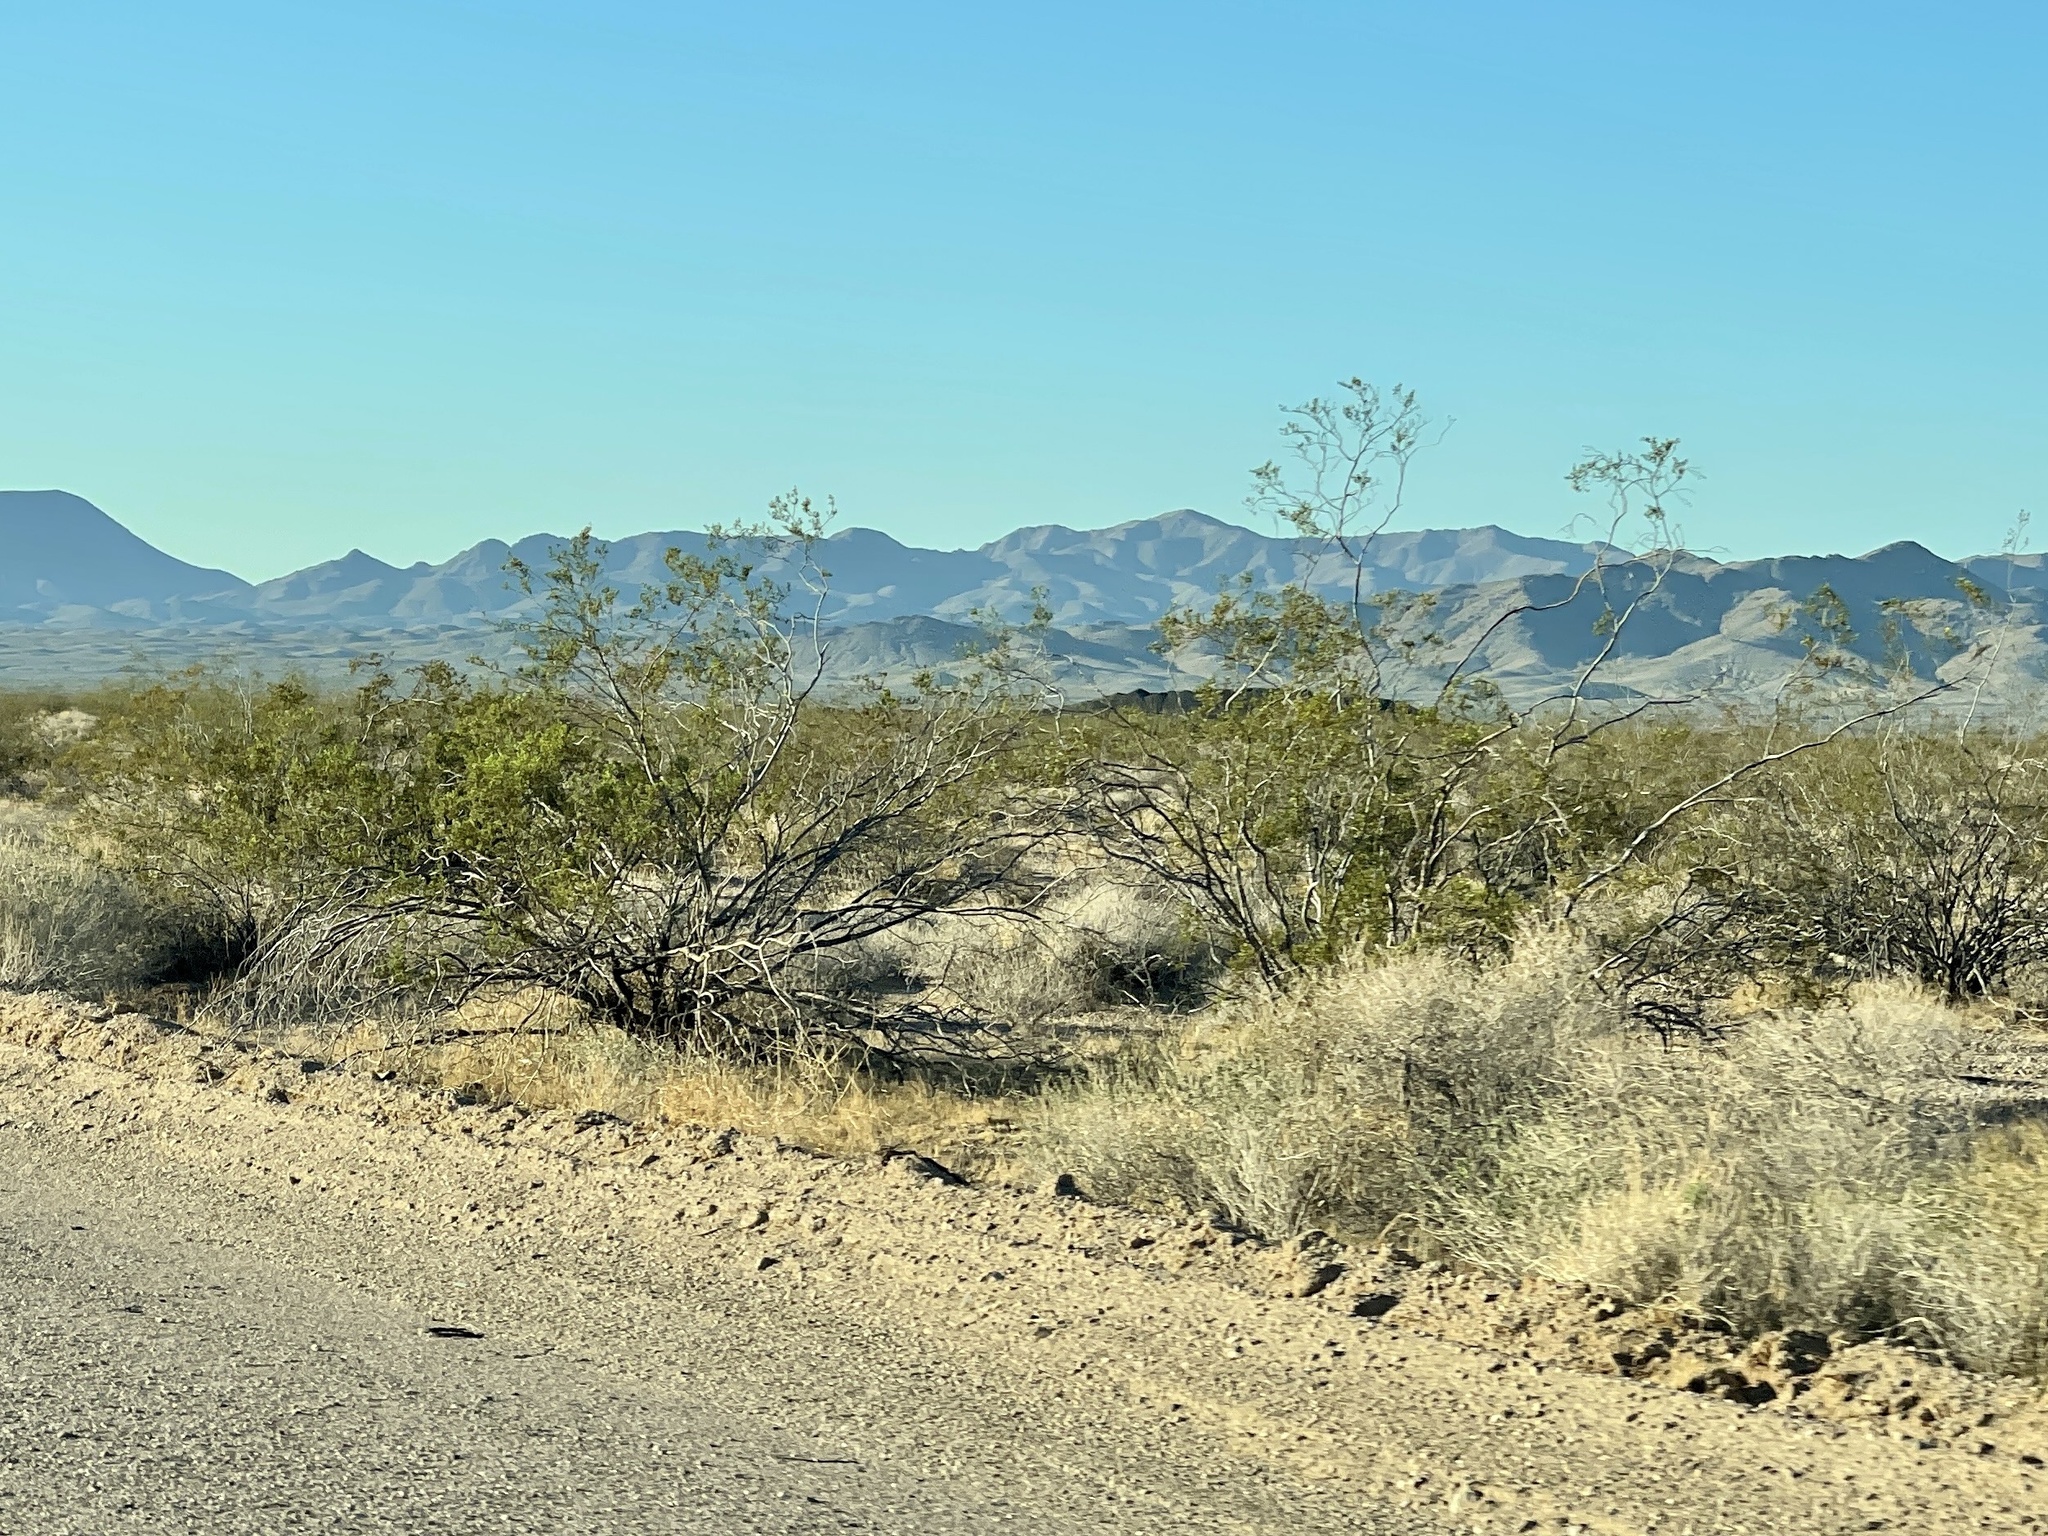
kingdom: Plantae
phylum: Tracheophyta
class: Magnoliopsida
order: Zygophyllales
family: Zygophyllaceae
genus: Larrea
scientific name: Larrea tridentata
